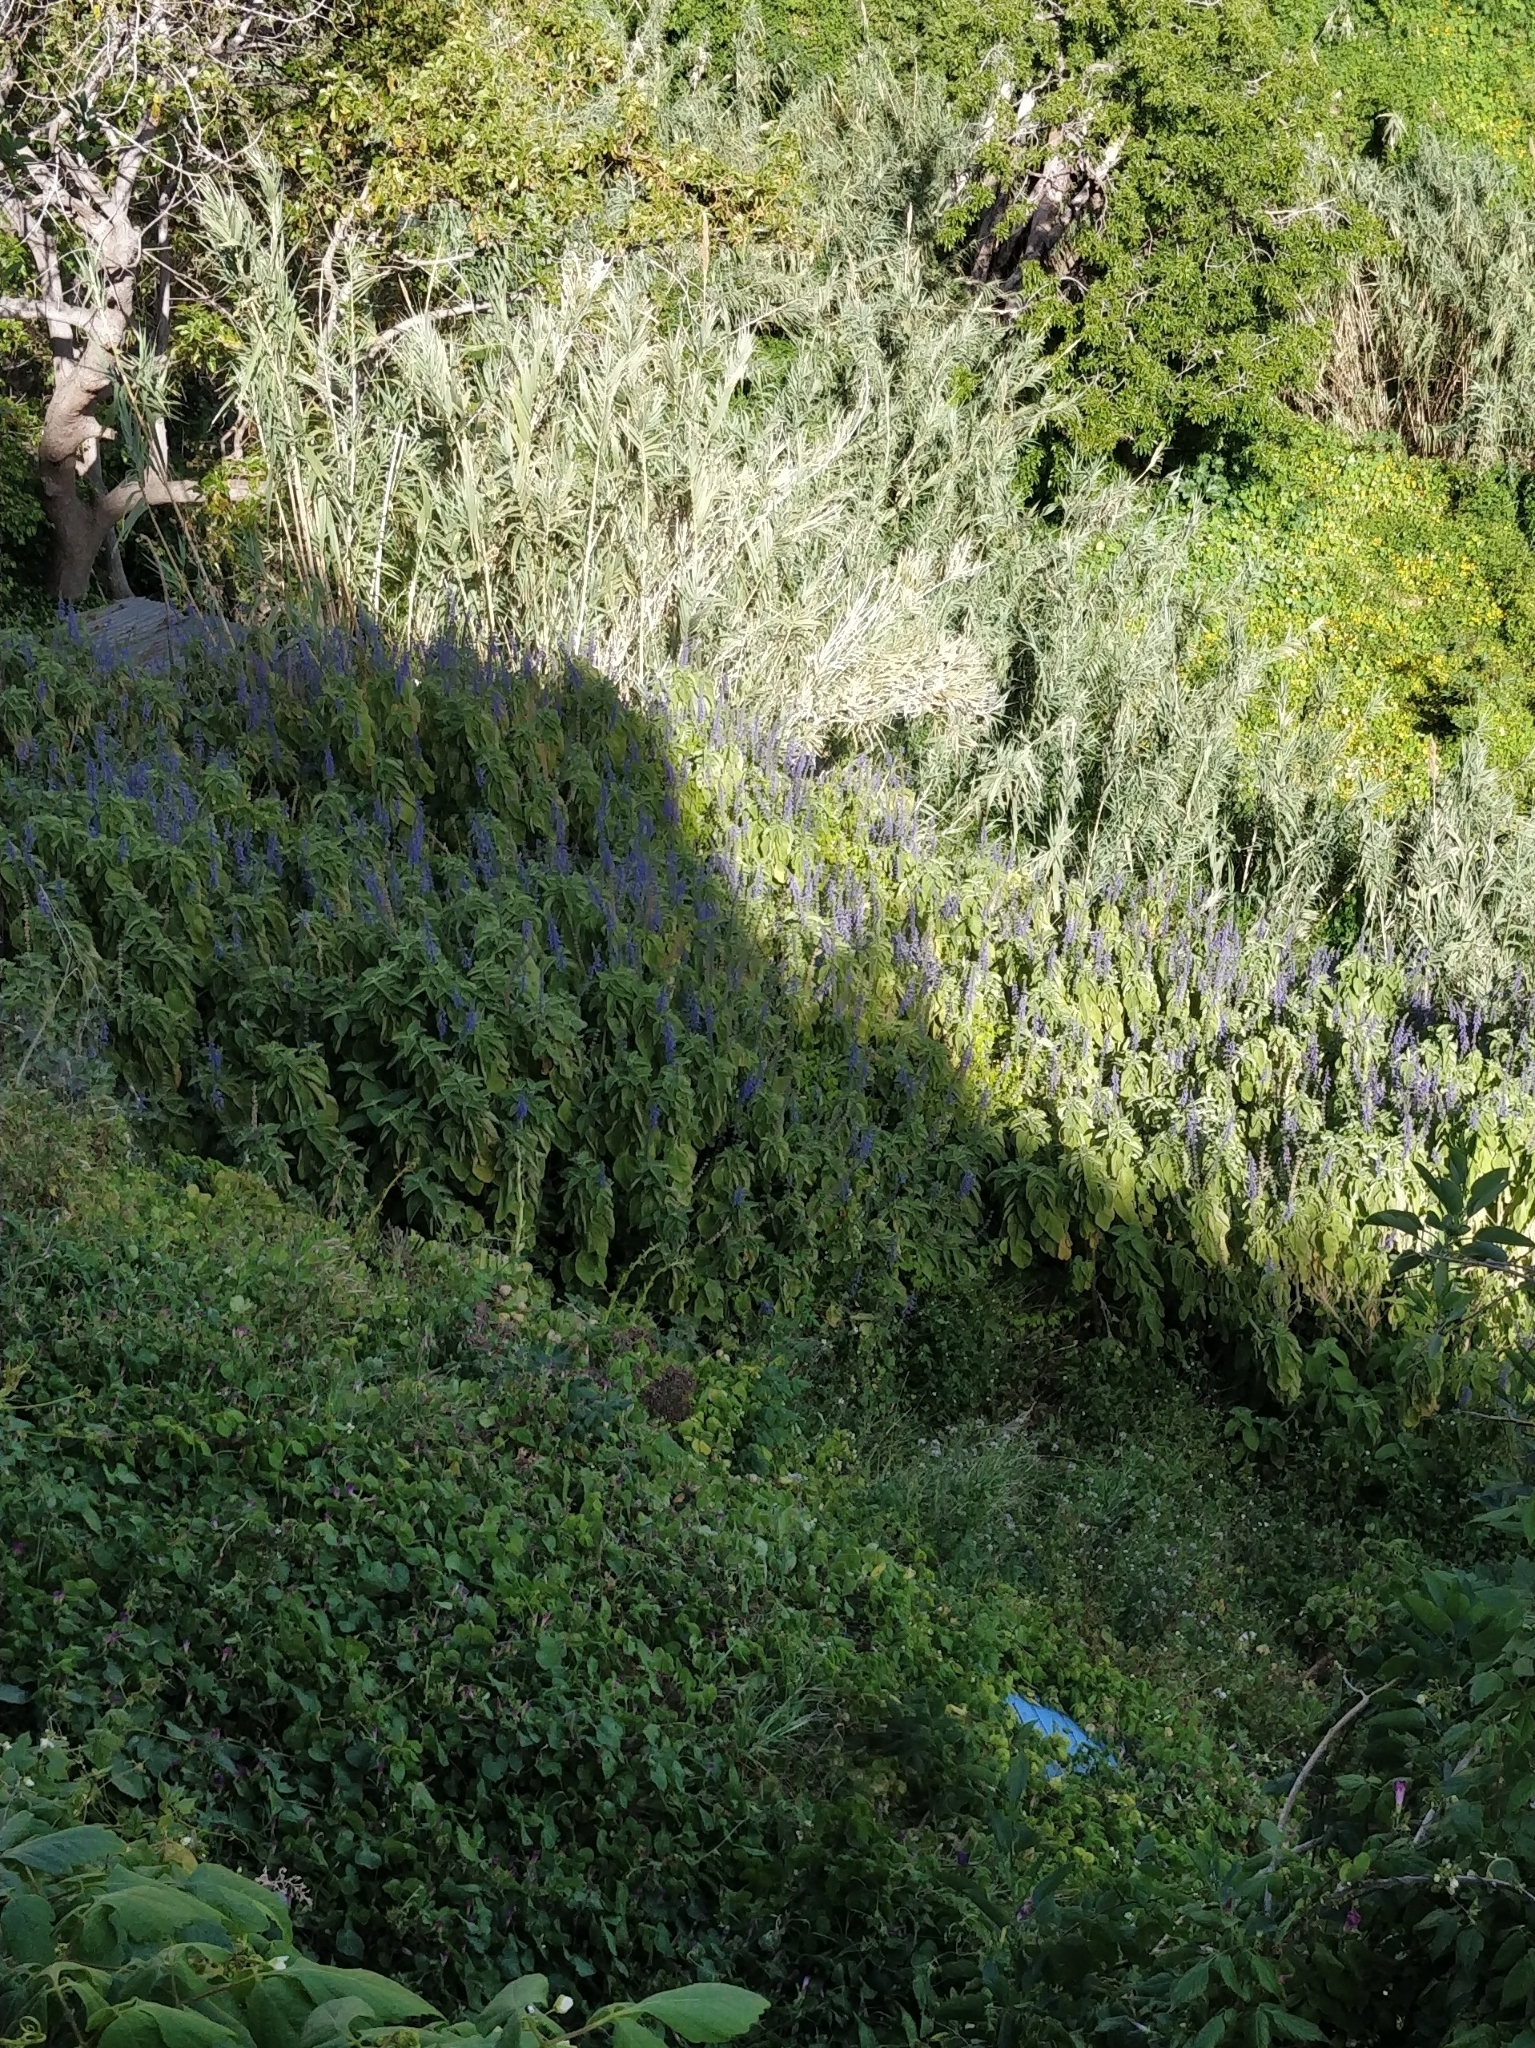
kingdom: Plantae
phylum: Tracheophyta
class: Magnoliopsida
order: Lamiales
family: Lamiaceae
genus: Coleus
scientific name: Coleus barbatus
